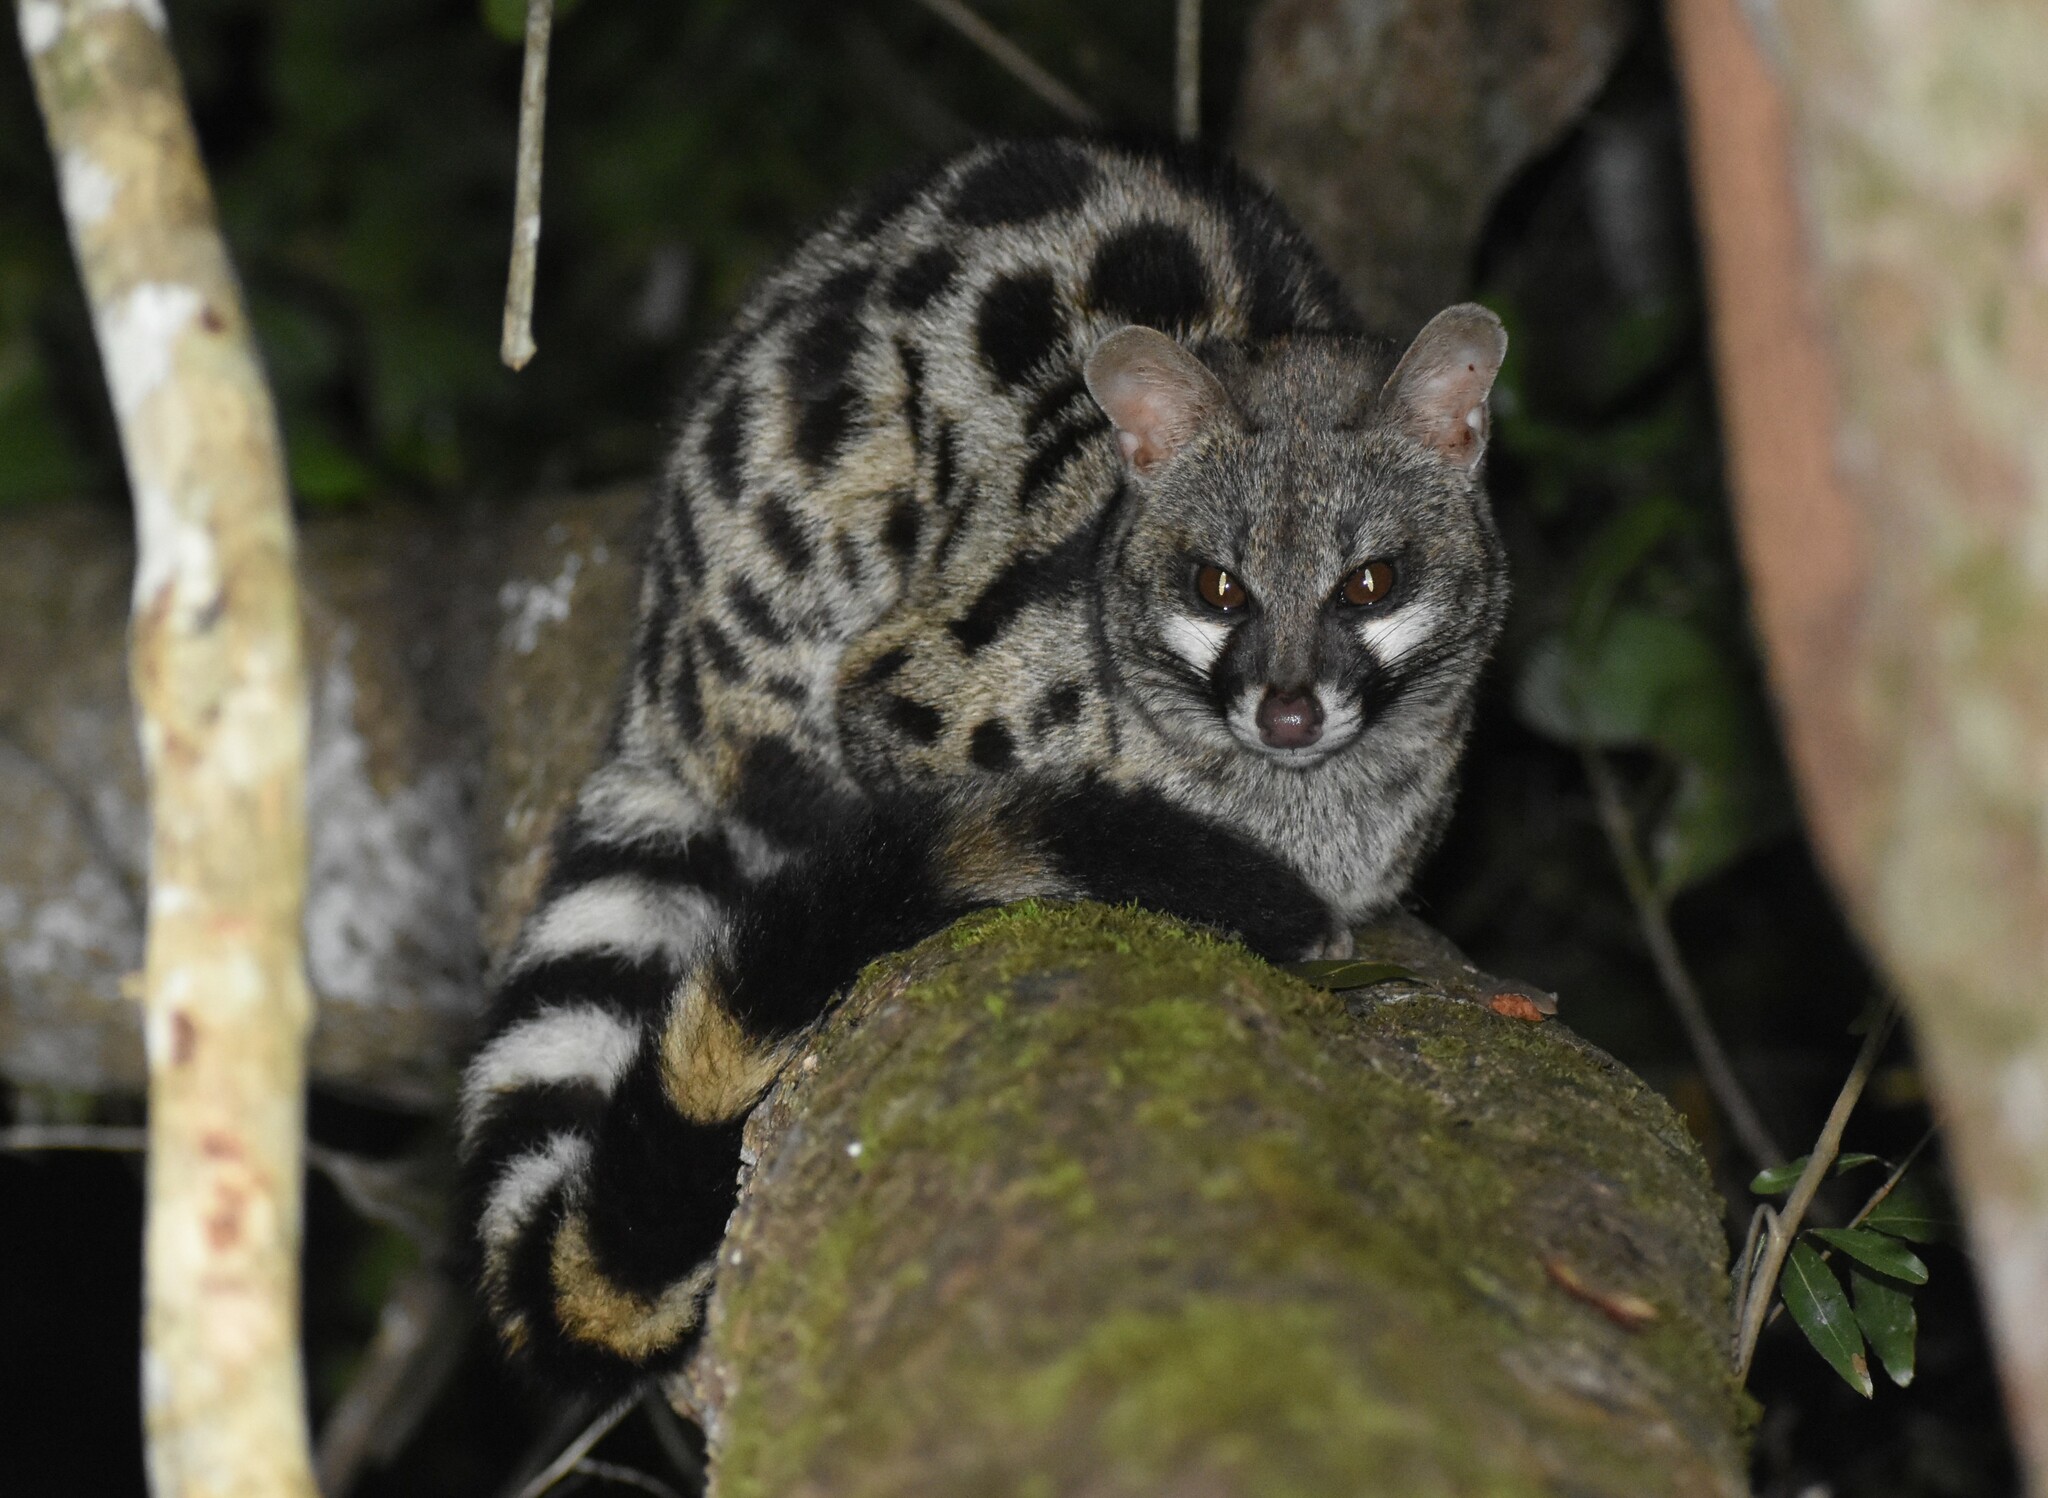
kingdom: Animalia
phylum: Chordata
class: Mammalia
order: Carnivora
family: Viverridae
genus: Genetta
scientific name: Genetta tigrina
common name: Cape genet
